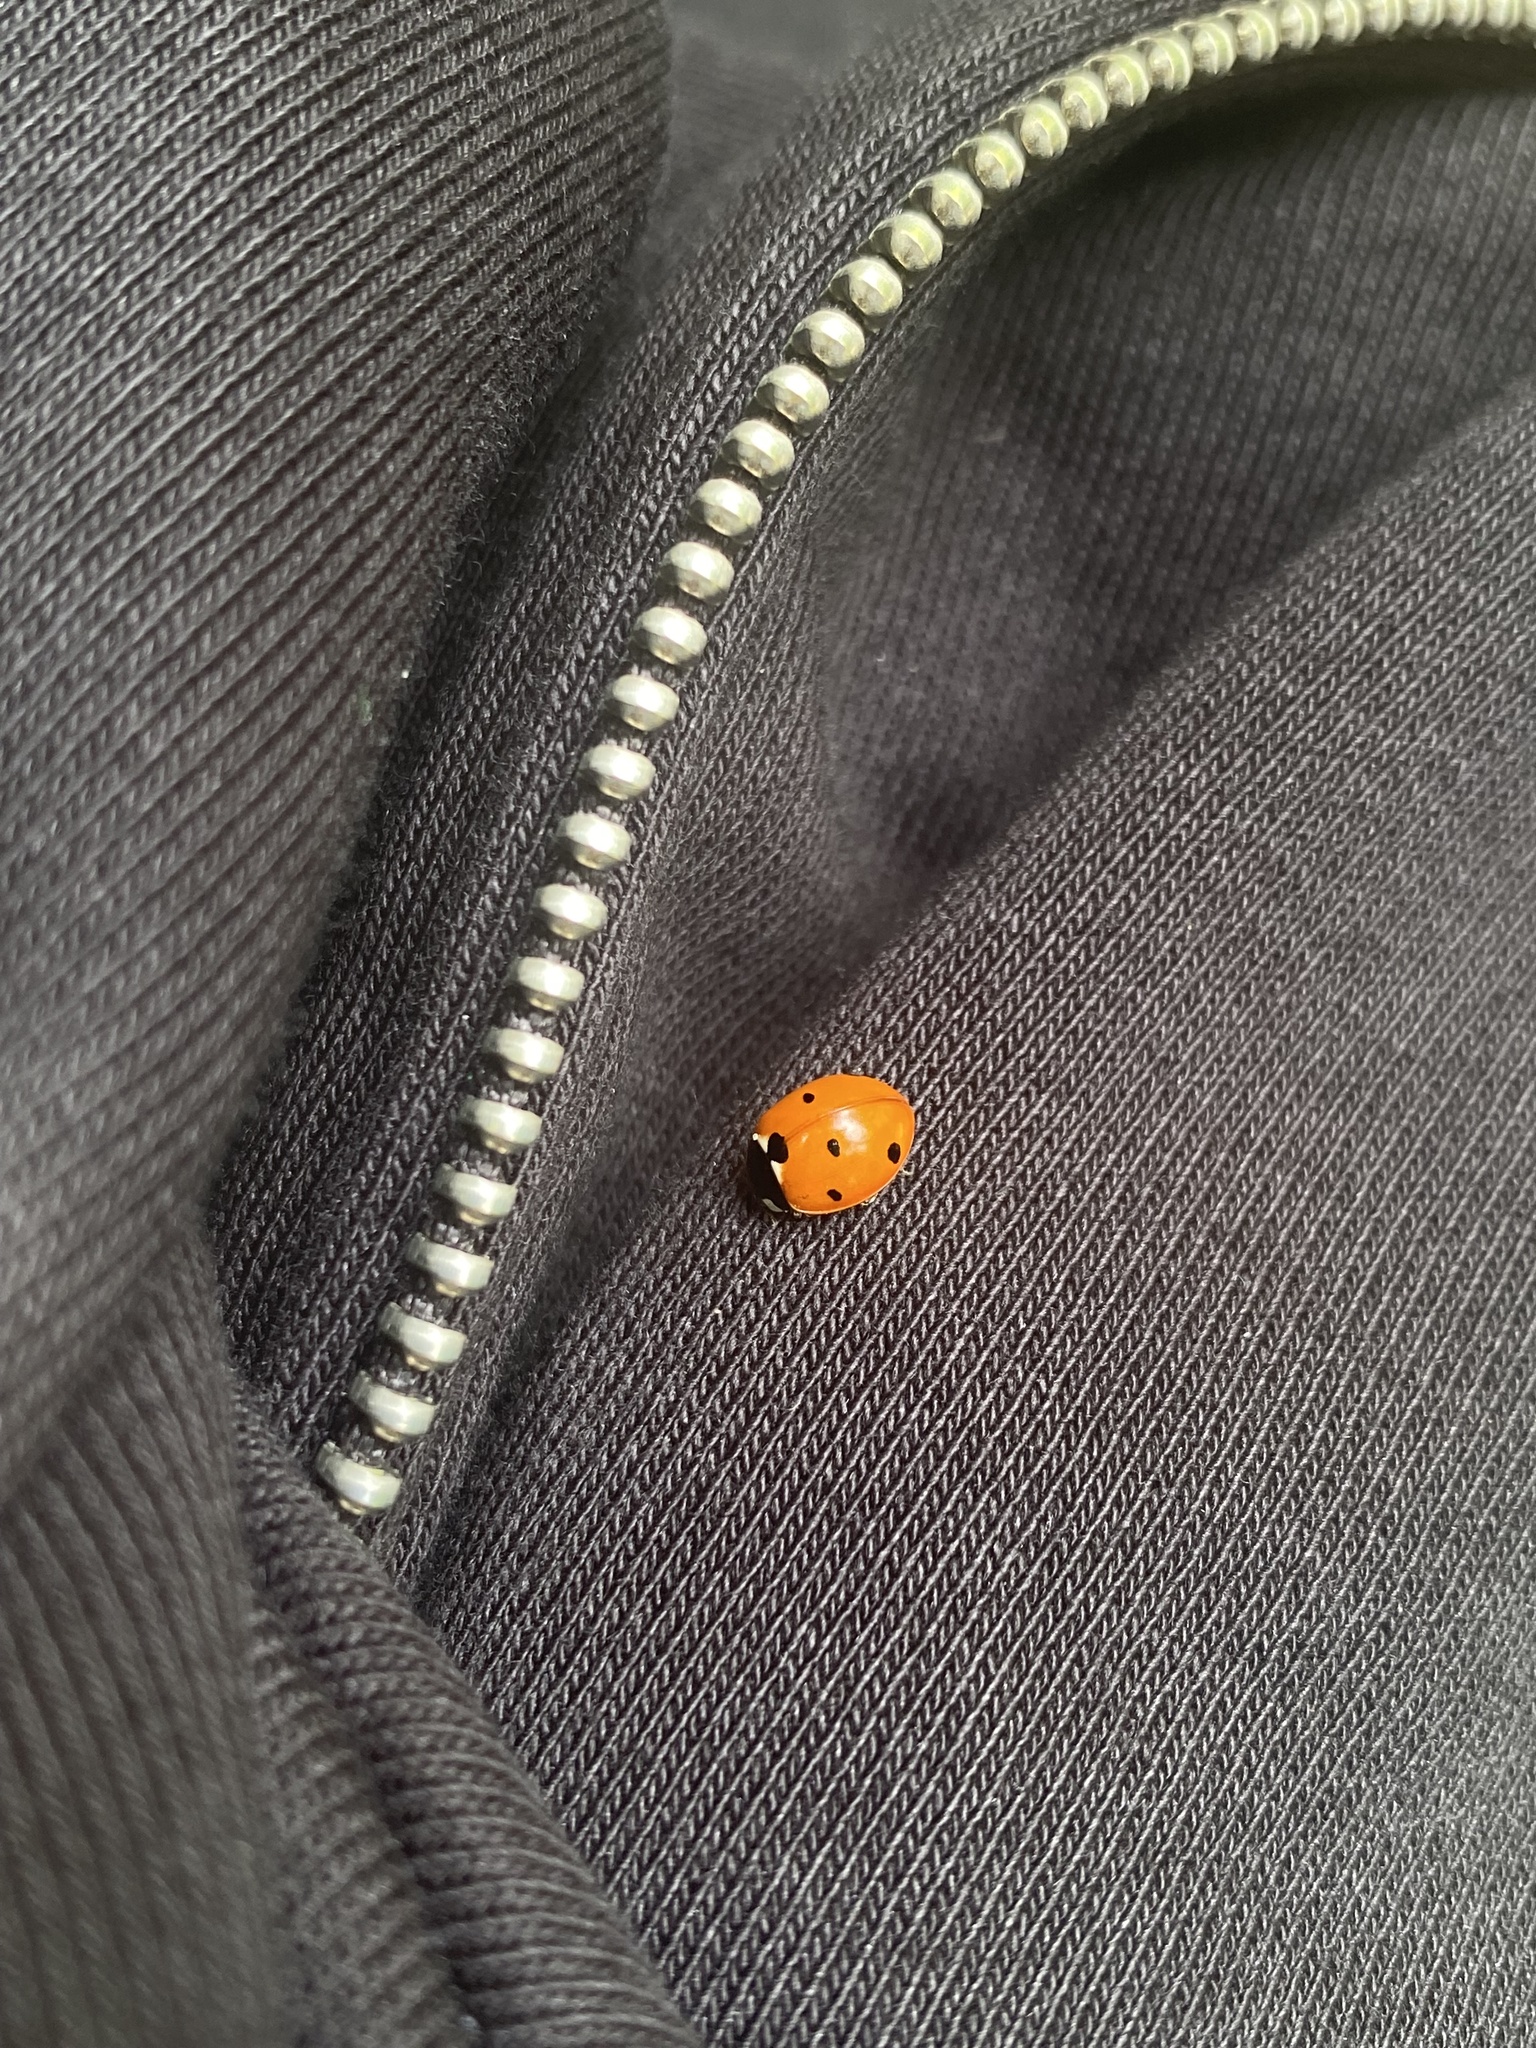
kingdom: Animalia
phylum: Arthropoda
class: Insecta
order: Coleoptera
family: Coccinellidae
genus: Coccinella
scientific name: Coccinella septempunctata
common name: Sevenspotted lady beetle
